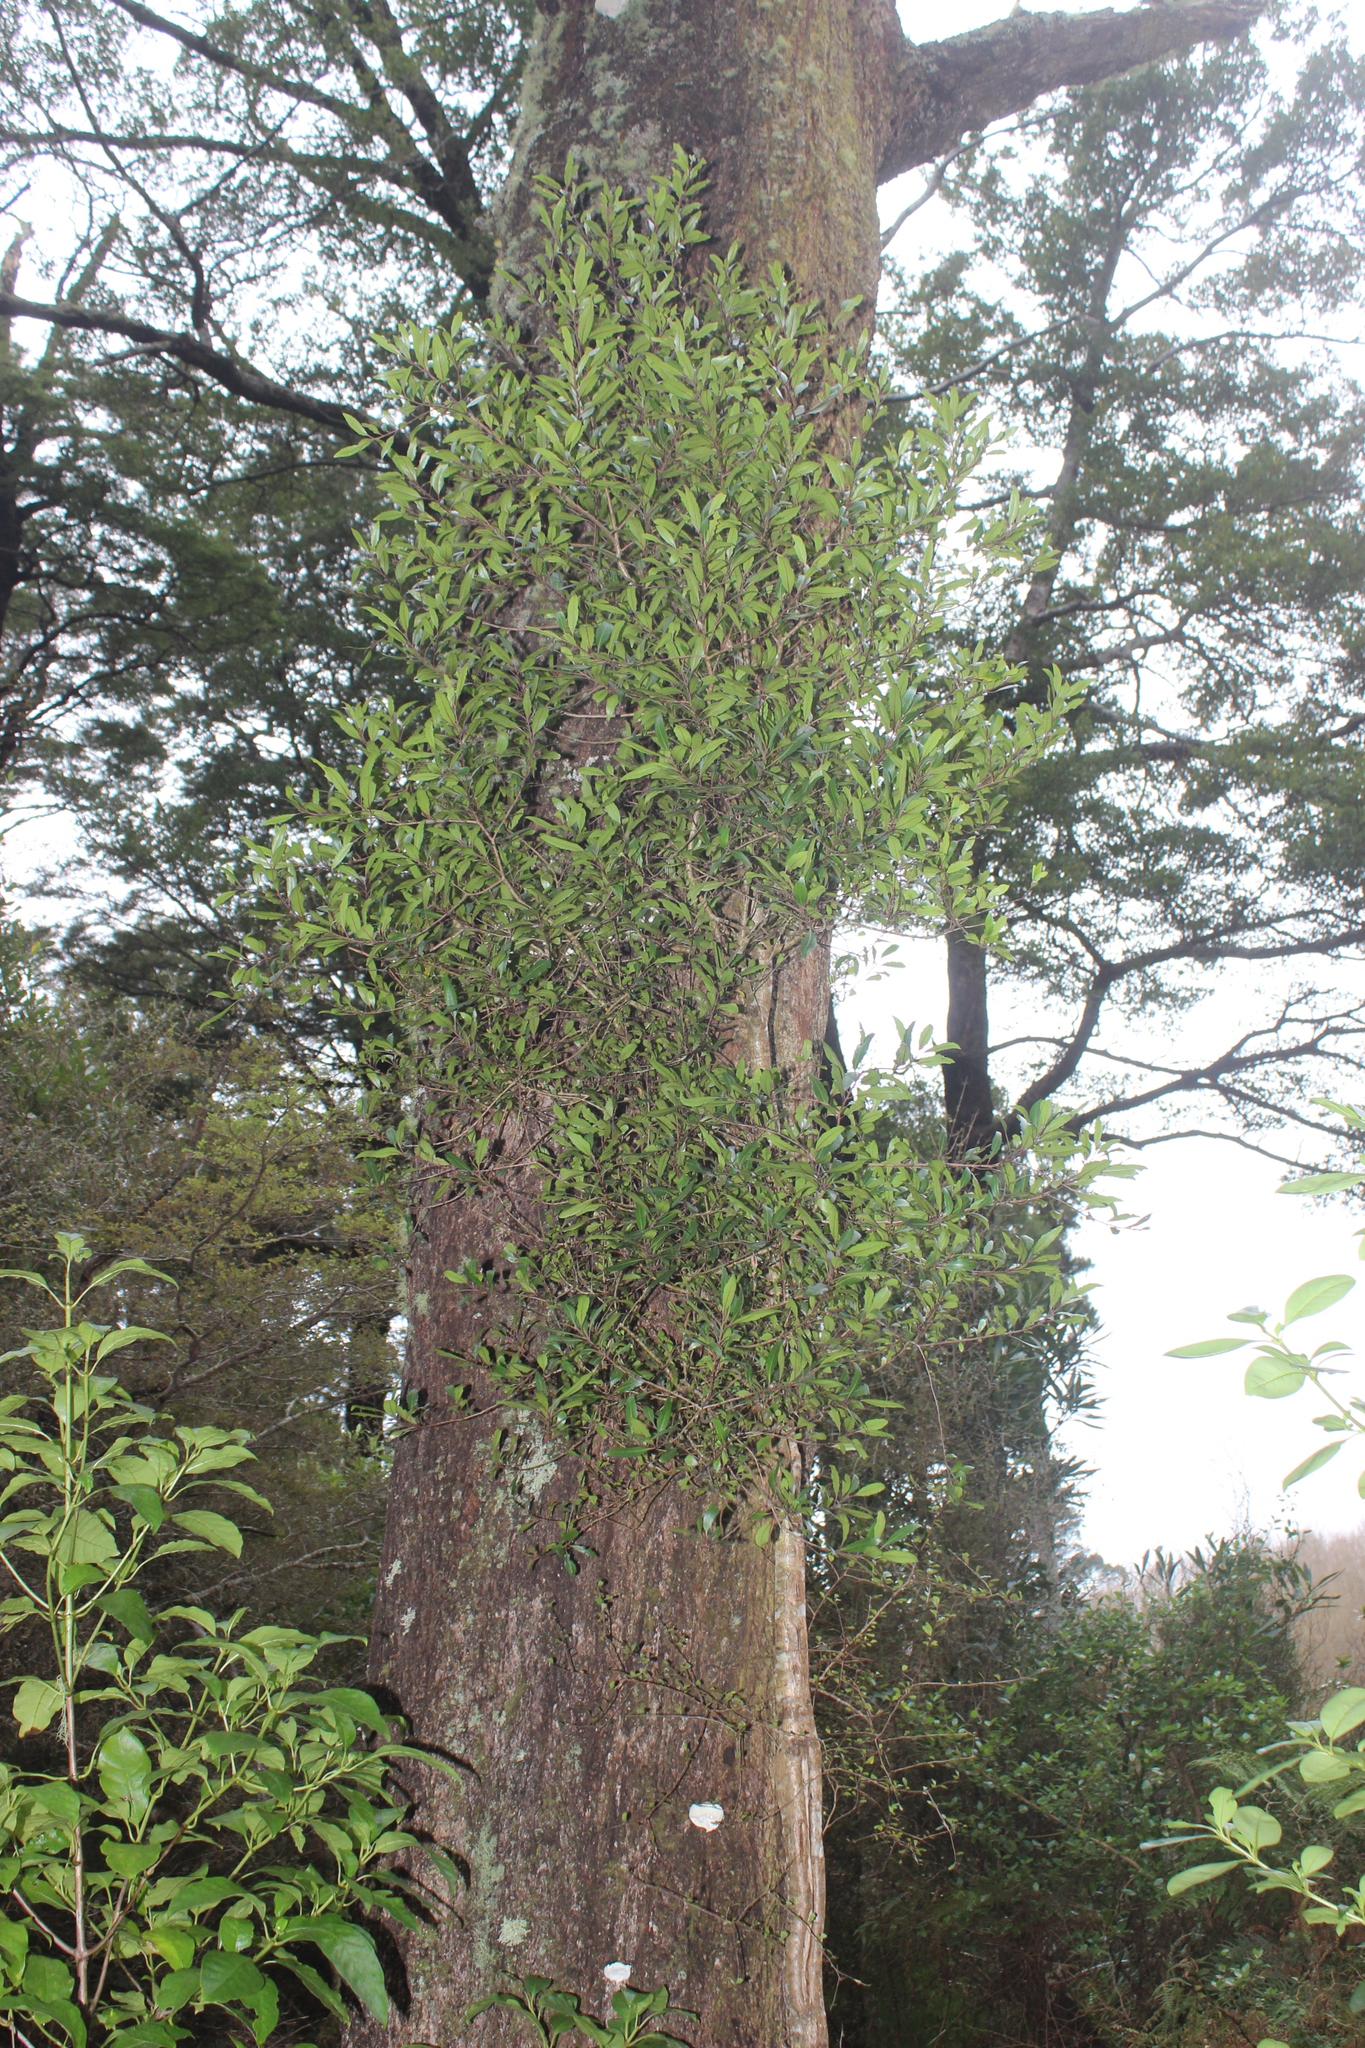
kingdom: Plantae
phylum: Tracheophyta
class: Magnoliopsida
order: Oxalidales
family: Elaeocarpaceae
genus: Elaeocarpus
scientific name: Elaeocarpus hookerianus
